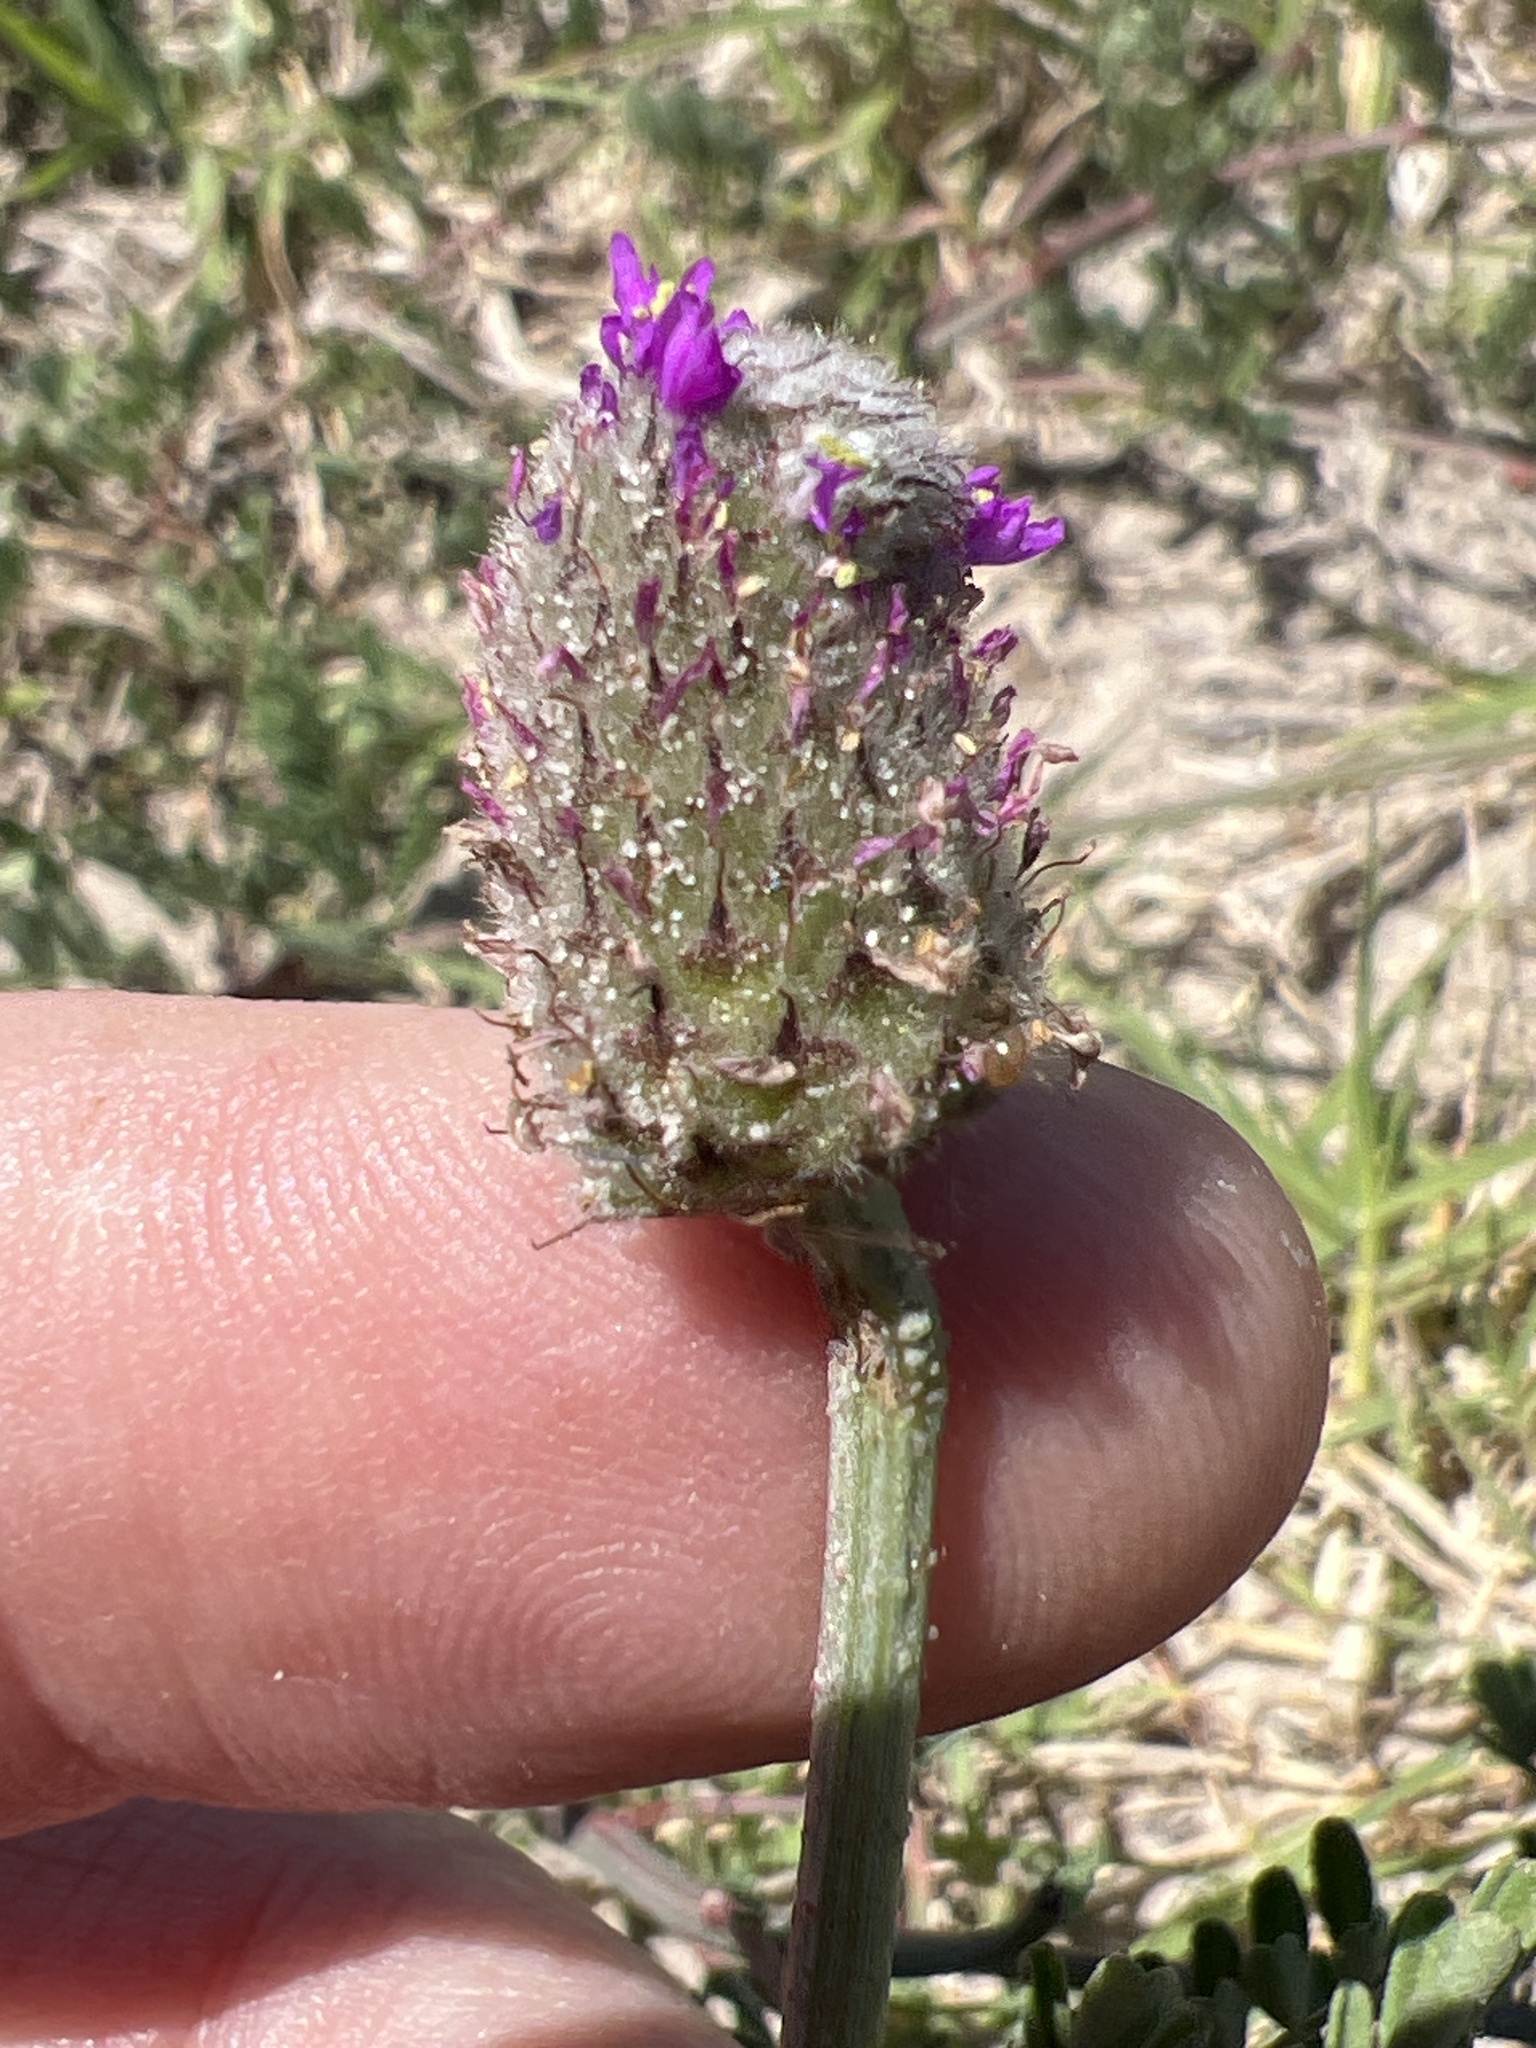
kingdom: Plantae
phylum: Tracheophyta
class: Magnoliopsida
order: Fabales
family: Fabaceae
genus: Dalea
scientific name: Dalea emarginata
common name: Wedgeleaf prairie clover
